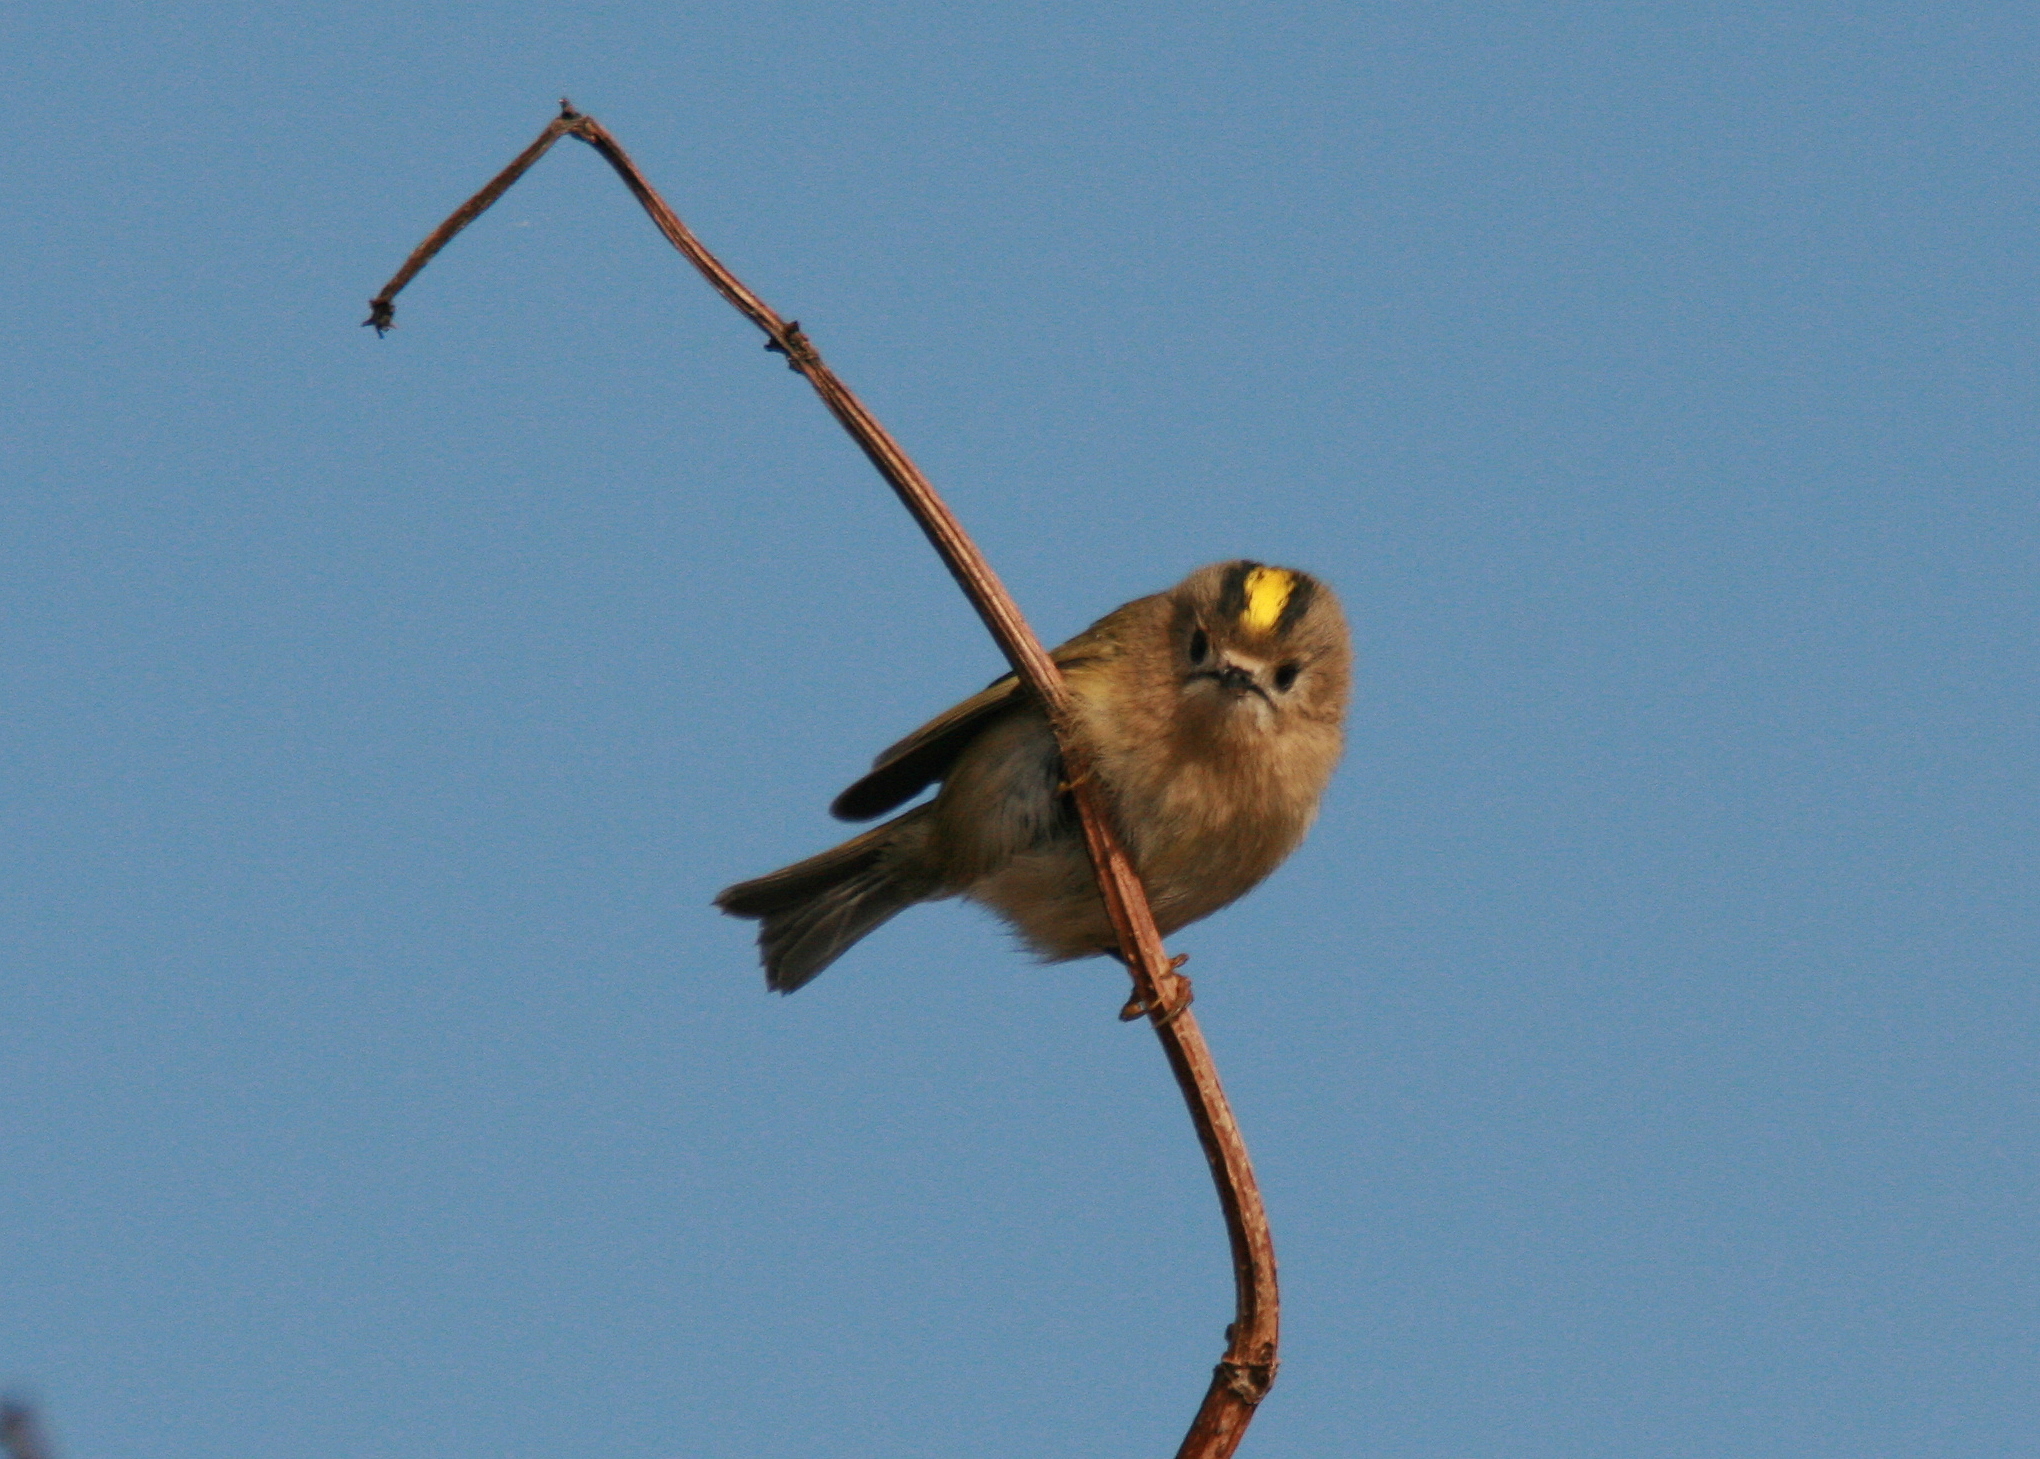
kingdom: Animalia
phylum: Chordata
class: Aves
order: Passeriformes
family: Regulidae
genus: Regulus
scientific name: Regulus regulus
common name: Goldcrest
